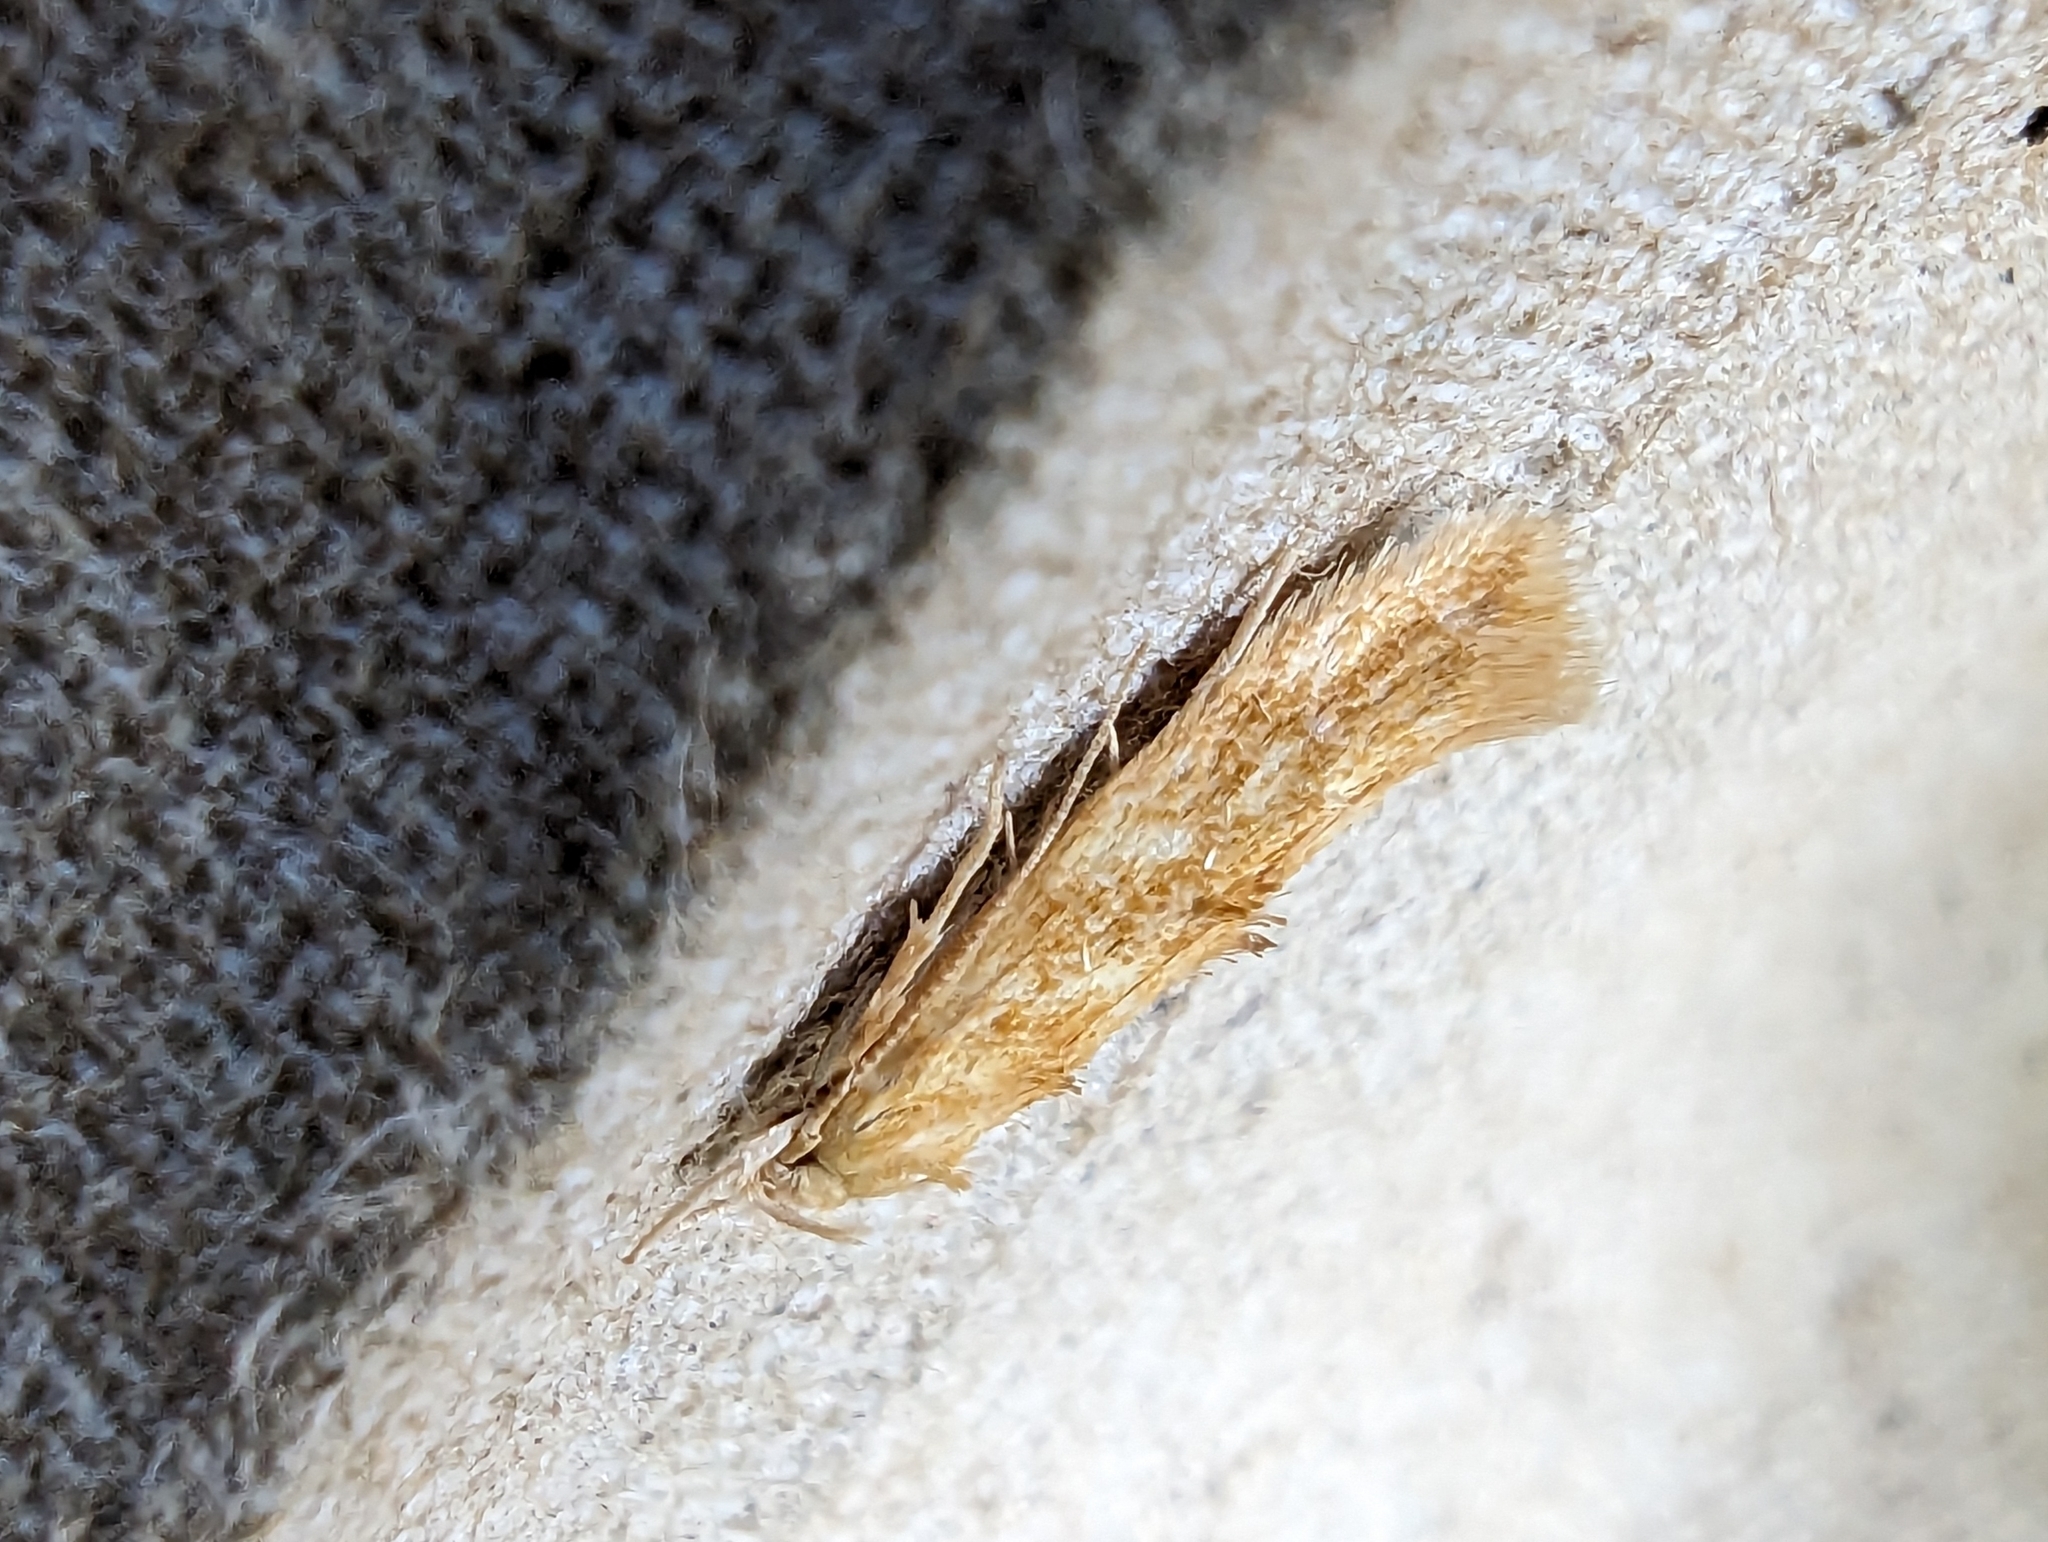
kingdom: Animalia
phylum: Arthropoda
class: Insecta
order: Lepidoptera
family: Momphidae
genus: Mompha
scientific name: Mompha ochraceella
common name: Buff cosmet
